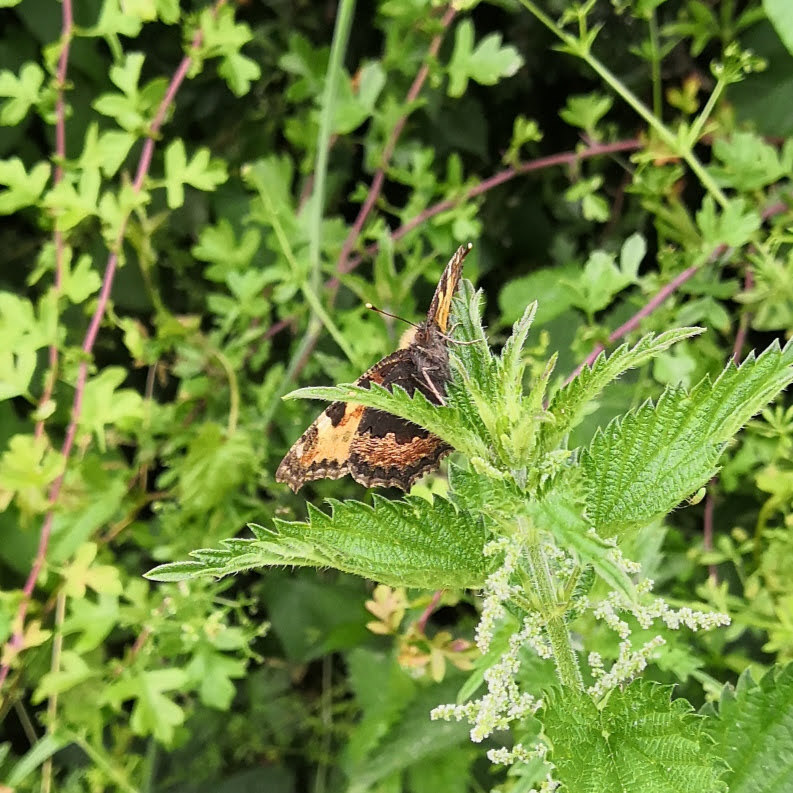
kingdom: Animalia
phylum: Arthropoda
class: Insecta
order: Lepidoptera
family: Nymphalidae
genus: Aglais
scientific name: Aglais urticae
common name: Small tortoiseshell
